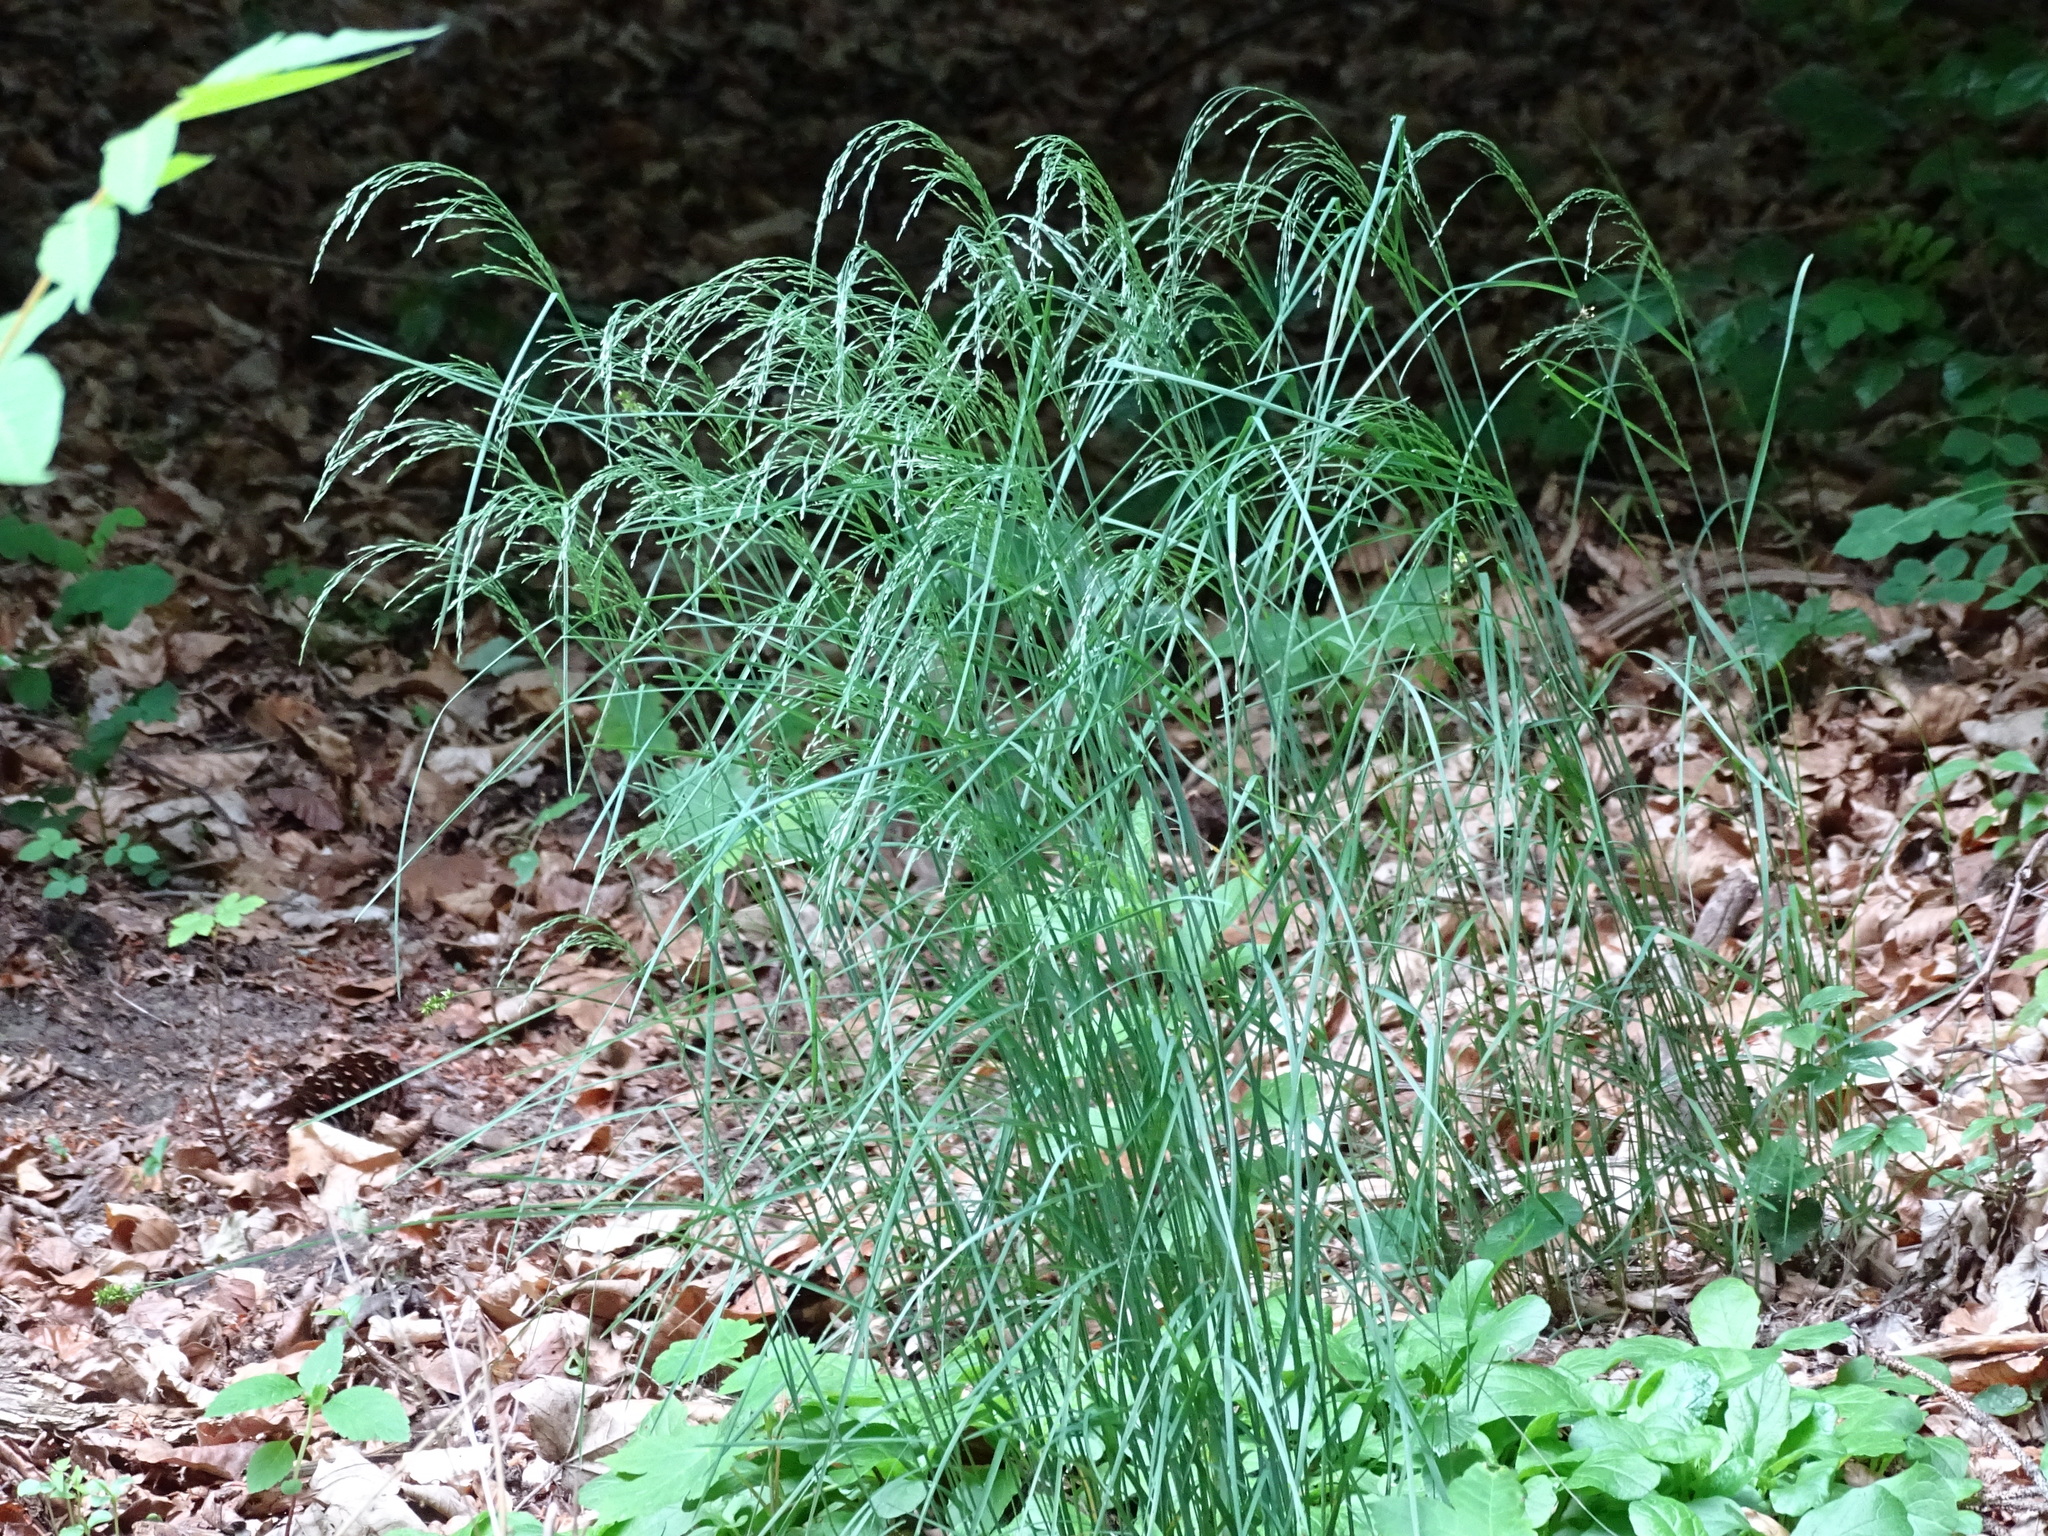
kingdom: Plantae
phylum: Tracheophyta
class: Liliopsida
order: Poales
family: Poaceae
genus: Poa
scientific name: Poa nemoralis
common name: Wood bluegrass
